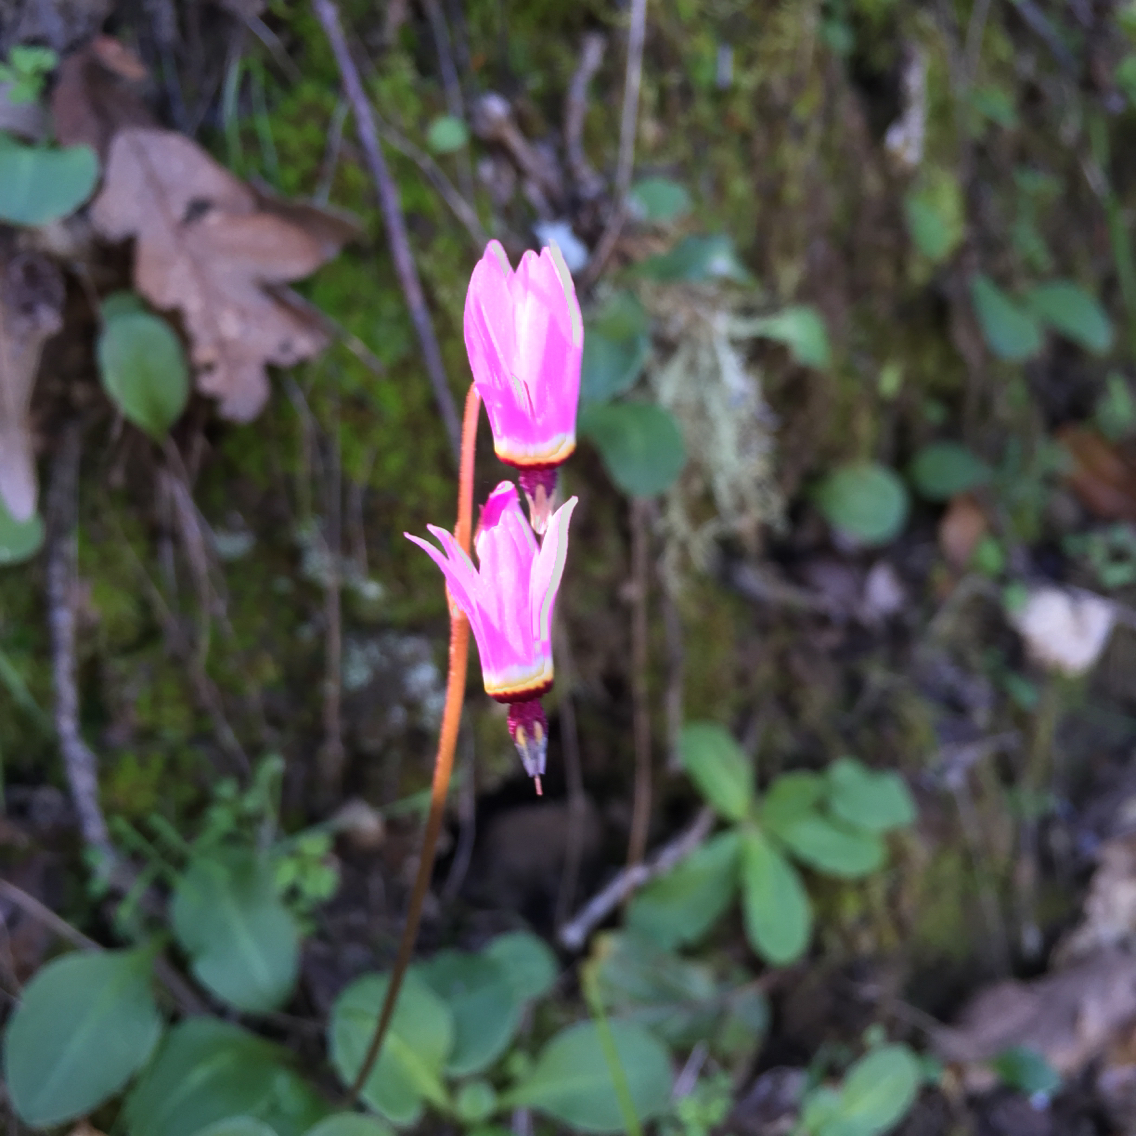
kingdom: Plantae
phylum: Tracheophyta
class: Magnoliopsida
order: Ericales
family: Primulaceae
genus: Dodecatheon
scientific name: Dodecatheon hendersonii
